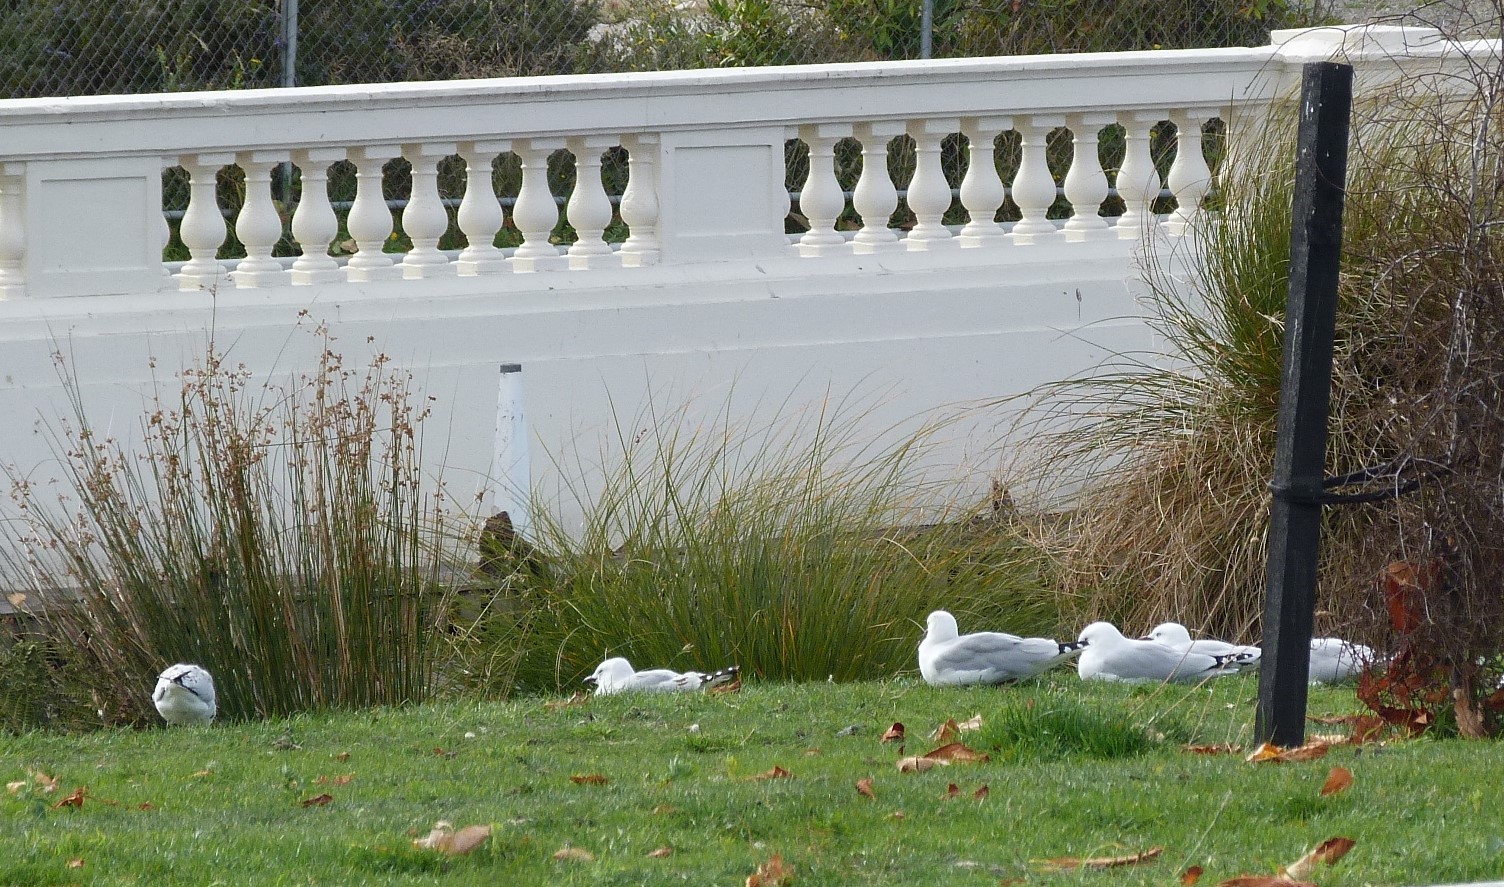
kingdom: Animalia
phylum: Chordata
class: Aves
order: Charadriiformes
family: Laridae
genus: Chroicocephalus
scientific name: Chroicocephalus novaehollandiae
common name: Silver gull
